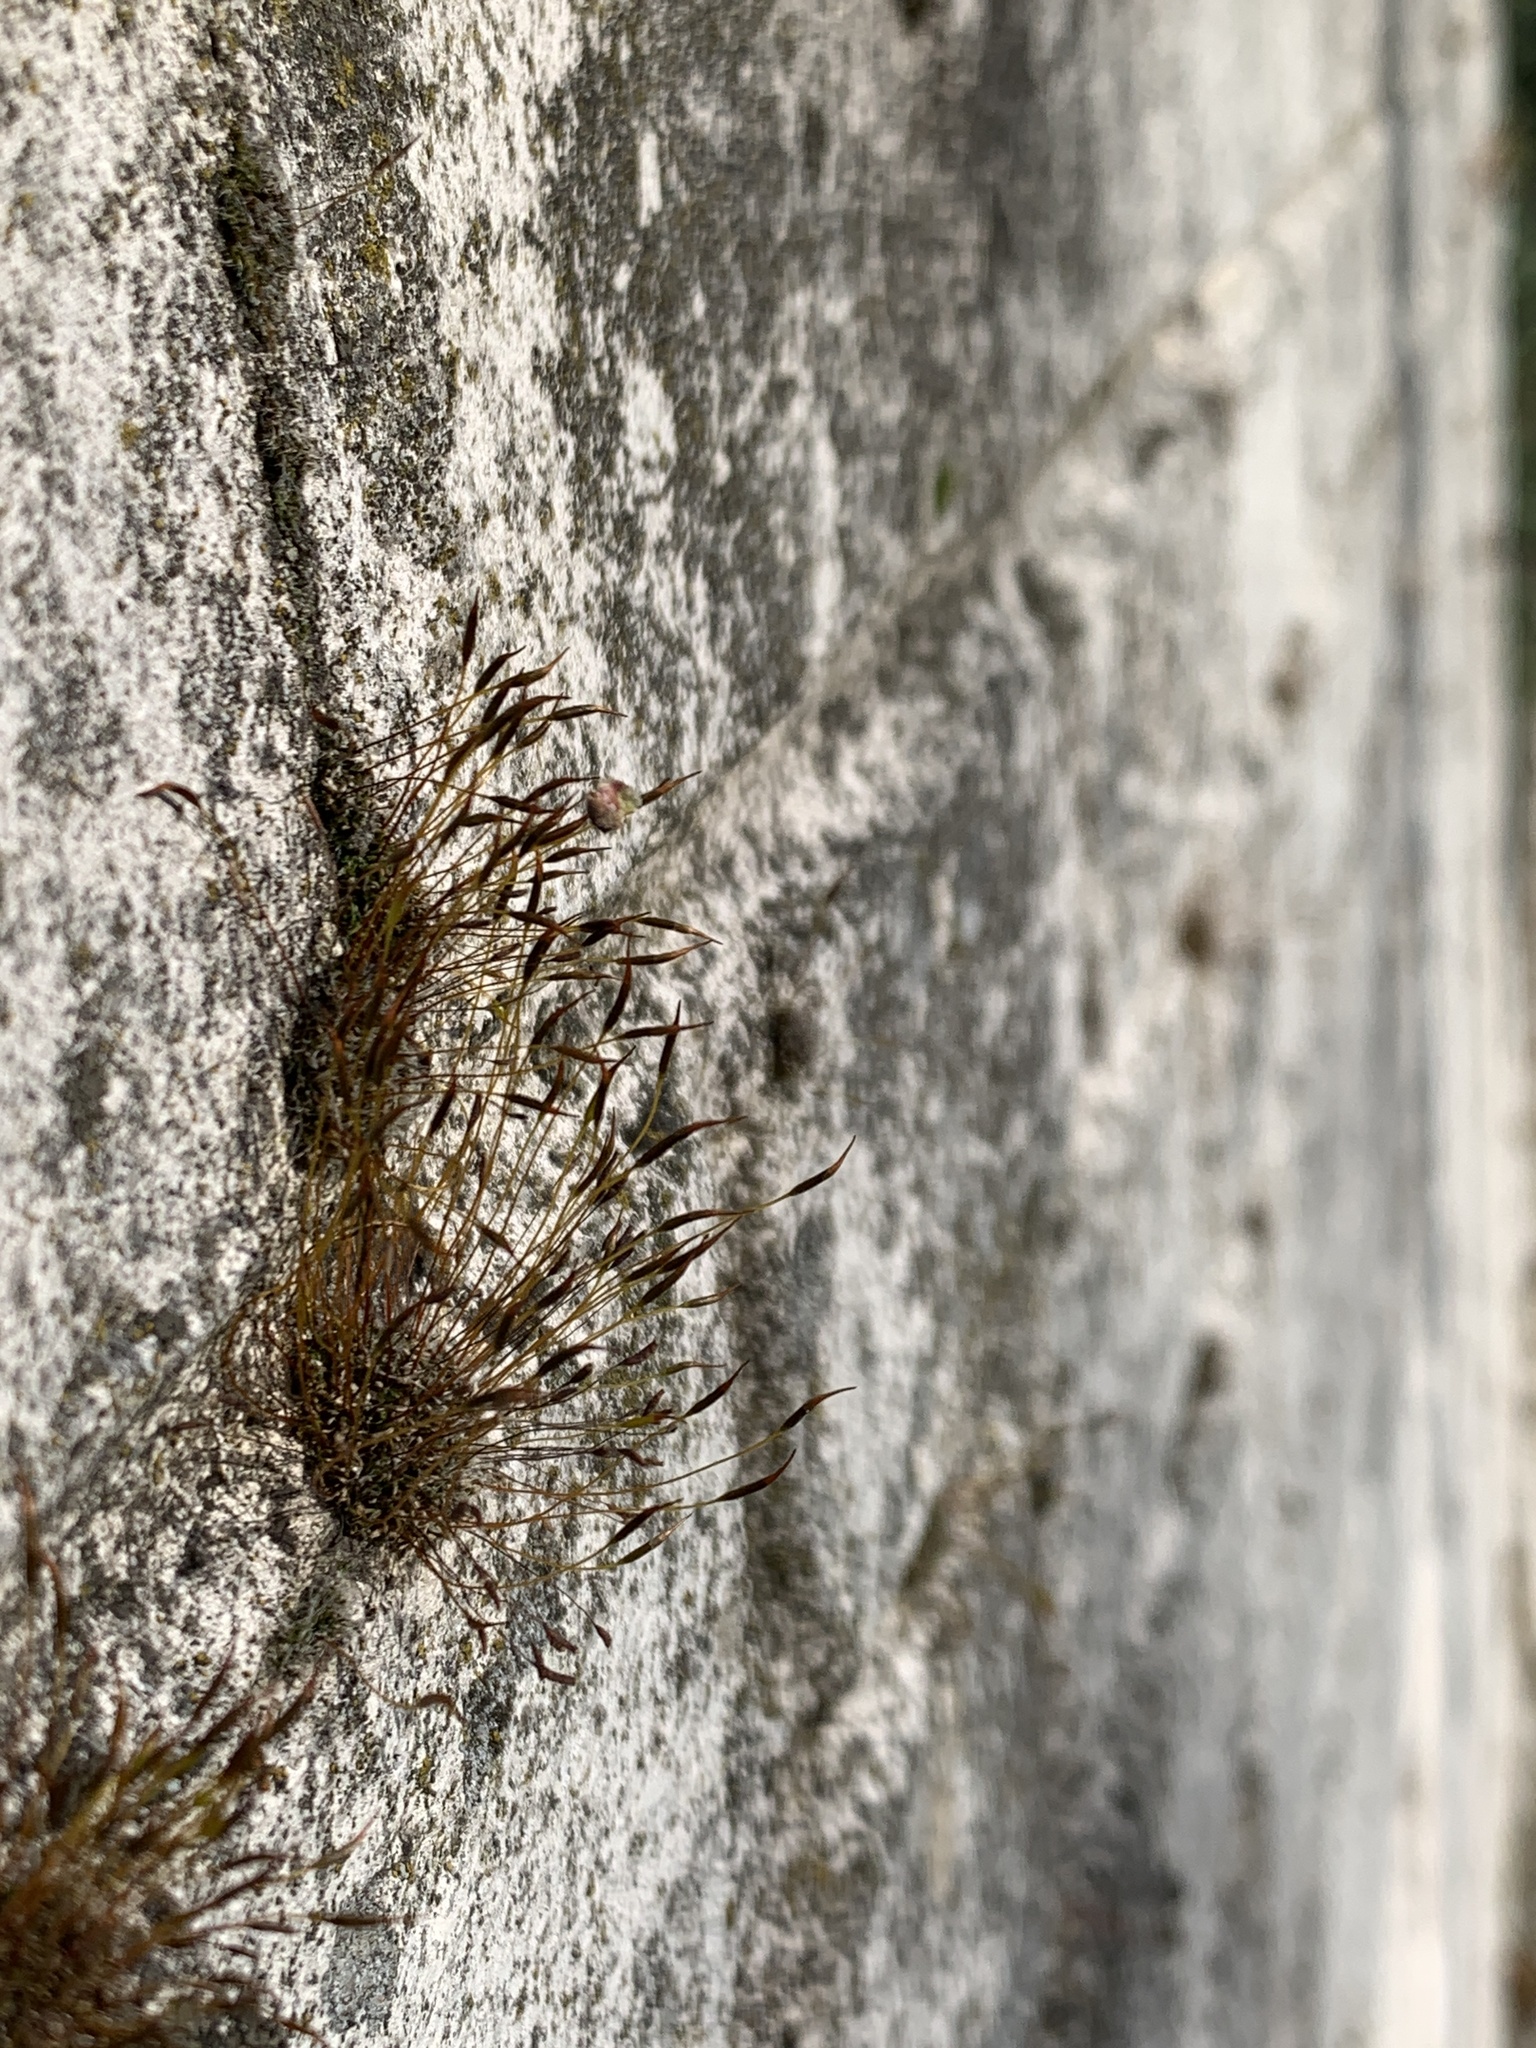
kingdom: Plantae
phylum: Bryophyta
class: Bryopsida
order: Pottiales
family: Pottiaceae
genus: Tortula
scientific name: Tortula muralis
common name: Wall screw-moss
